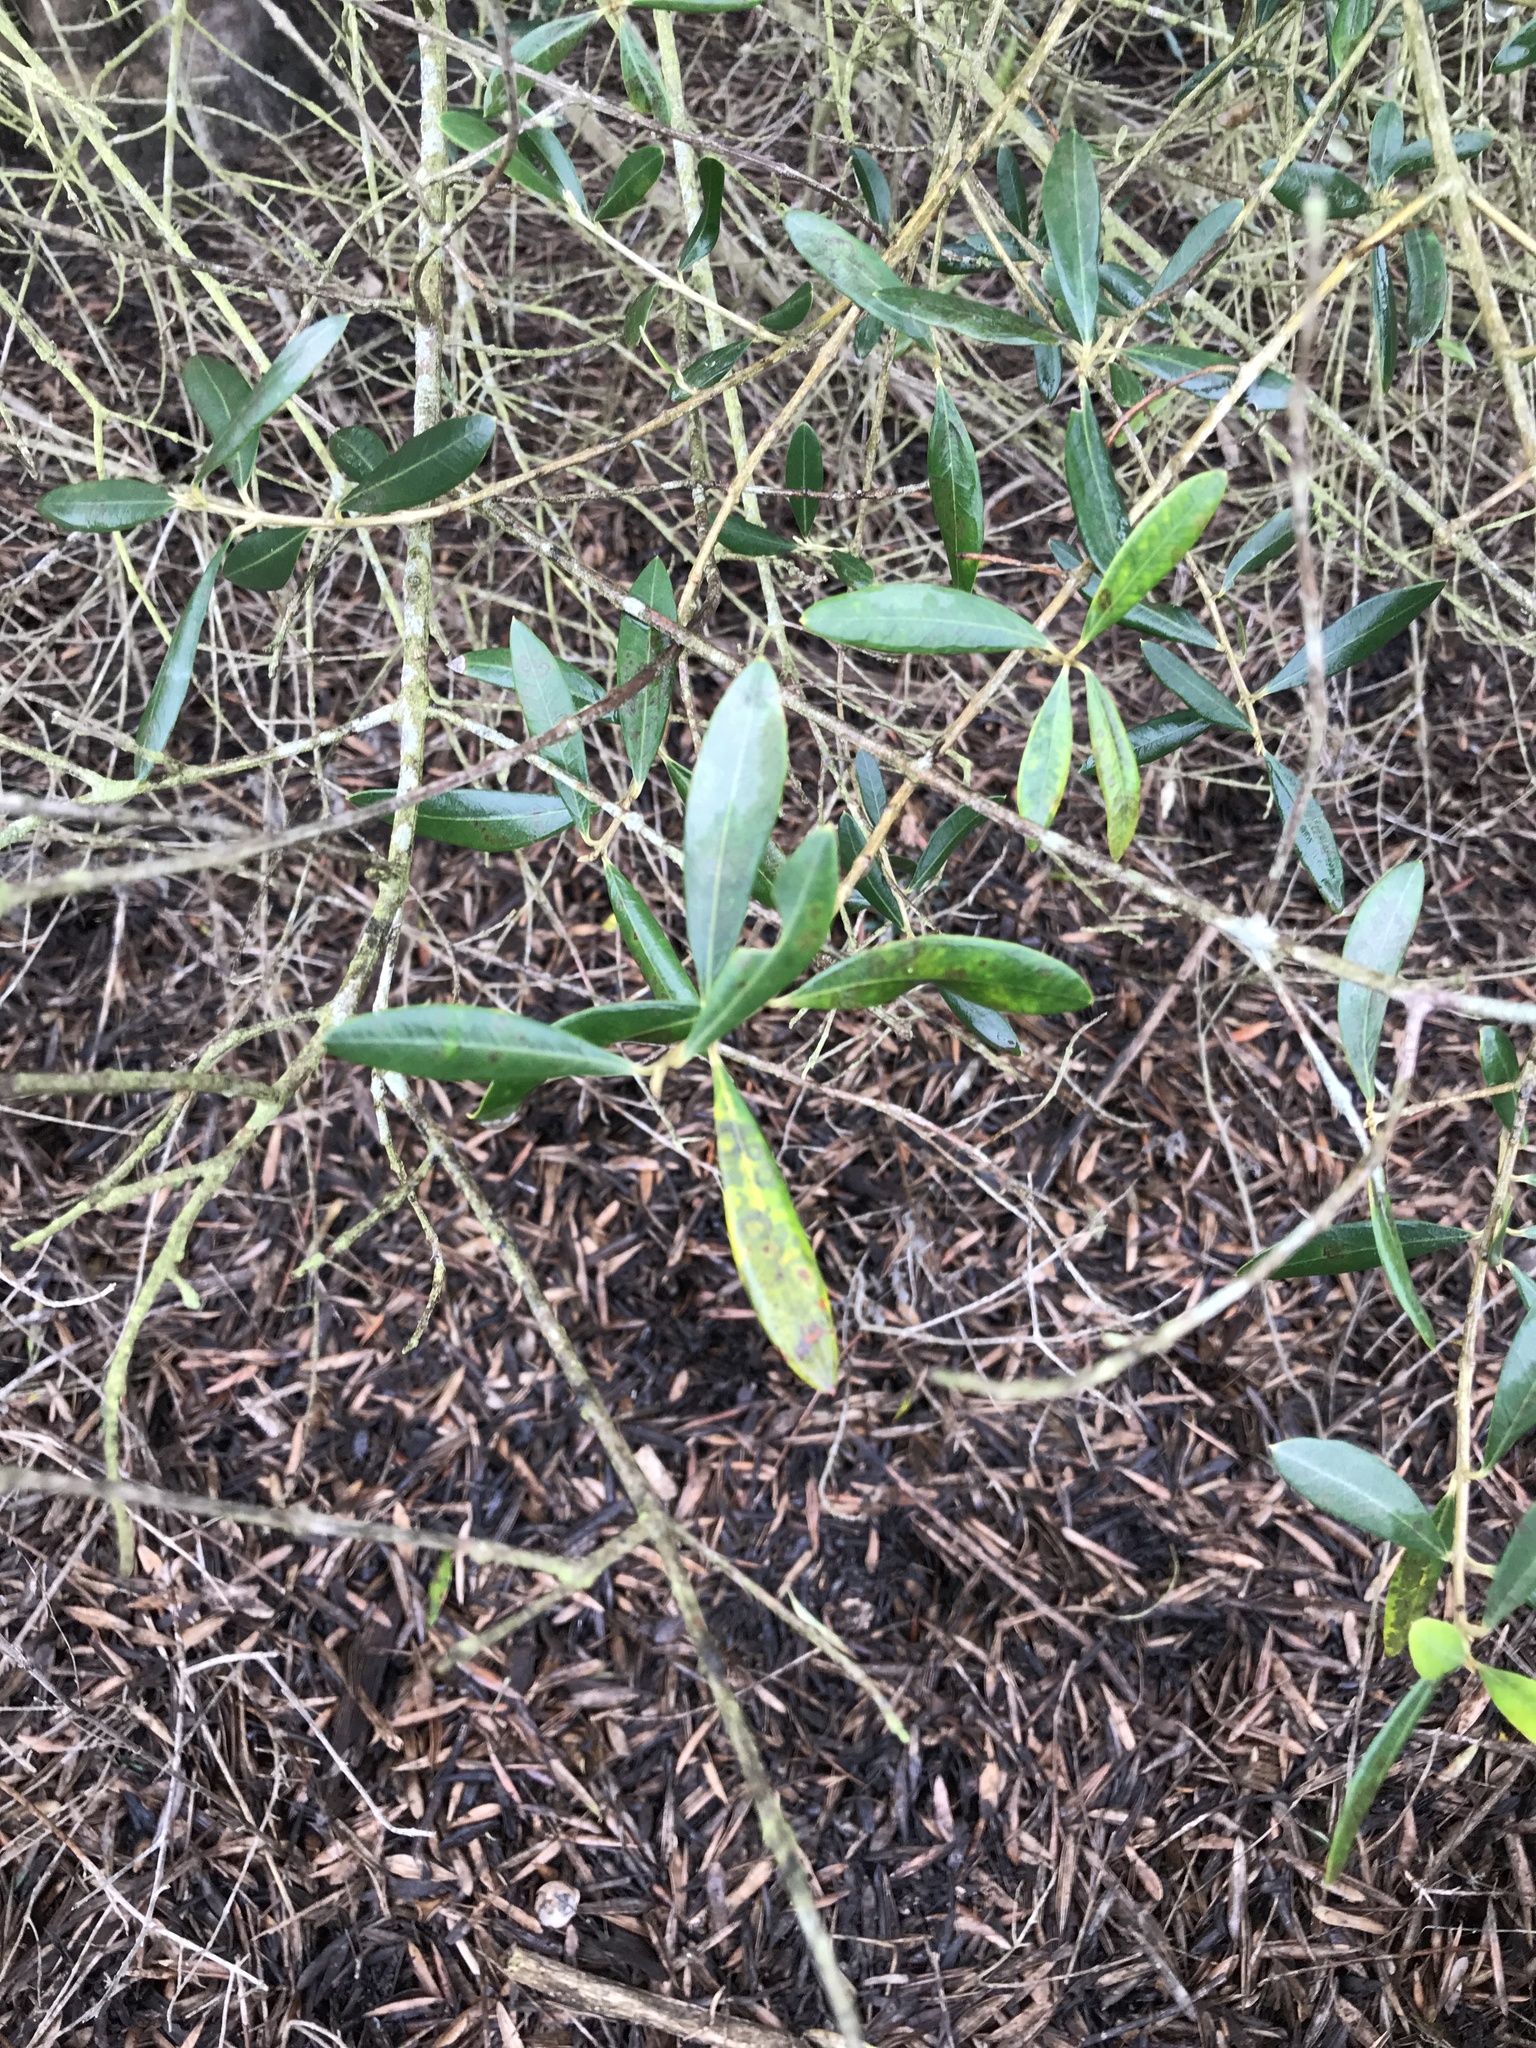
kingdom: Plantae
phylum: Tracheophyta
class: Magnoliopsida
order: Lamiales
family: Oleaceae
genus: Olea
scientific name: Olea europaea
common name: Olive
